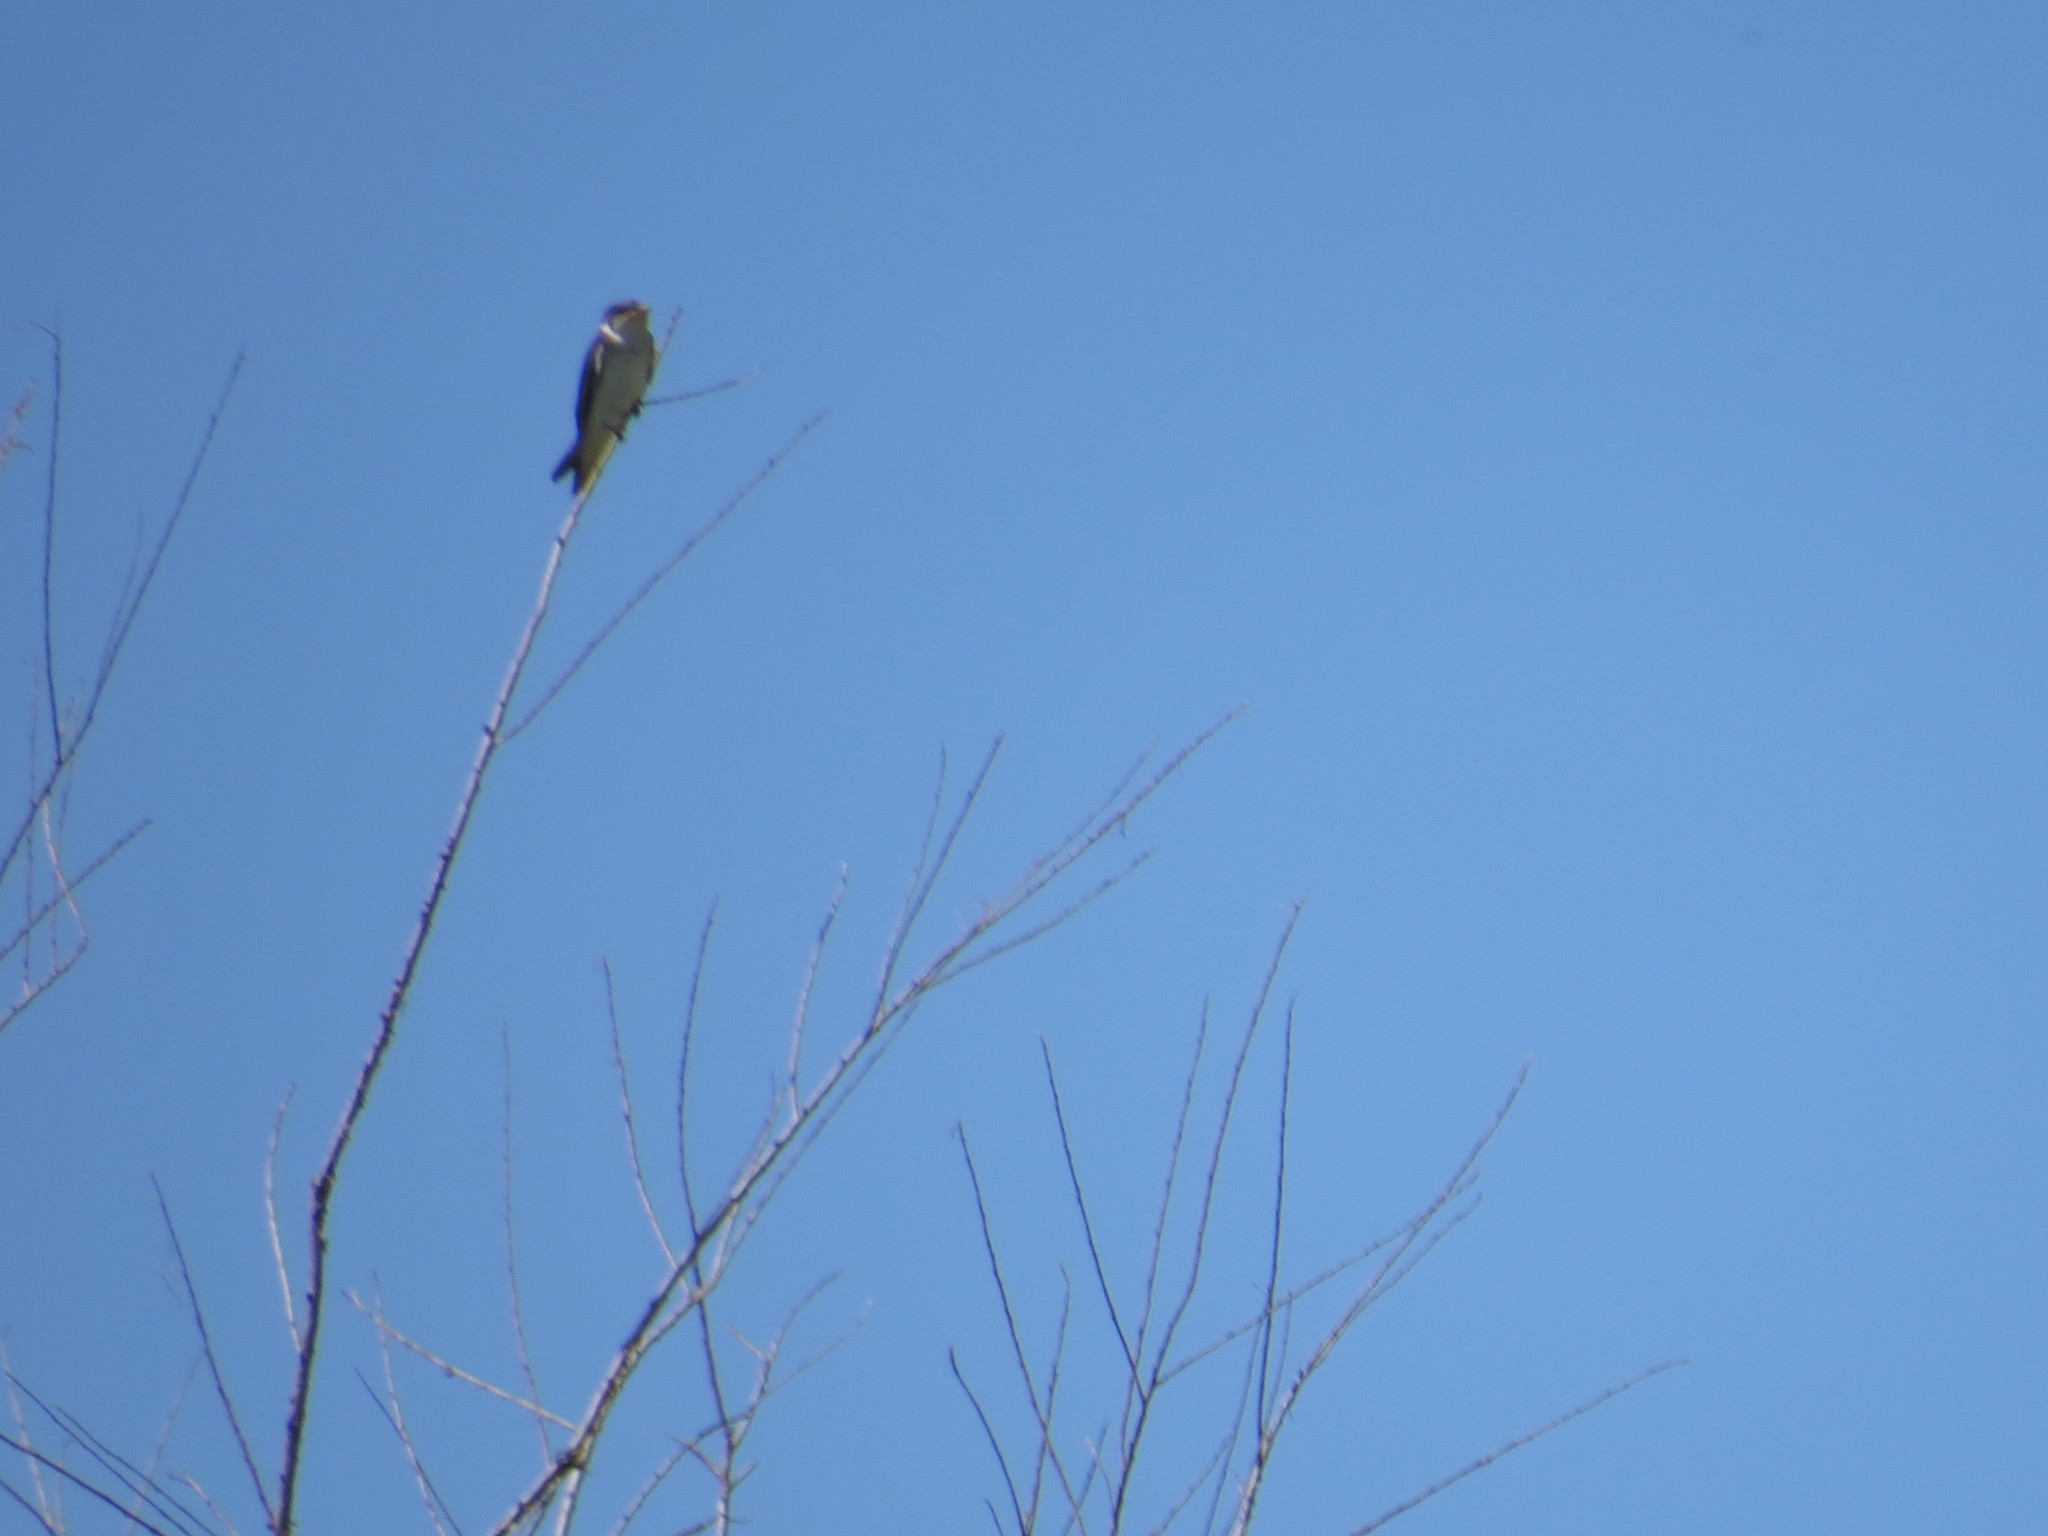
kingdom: Animalia
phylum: Chordata
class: Aves
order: Passeriformes
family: Hirundinidae
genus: Hirundo
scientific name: Hirundo rustica
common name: Barn swallow
